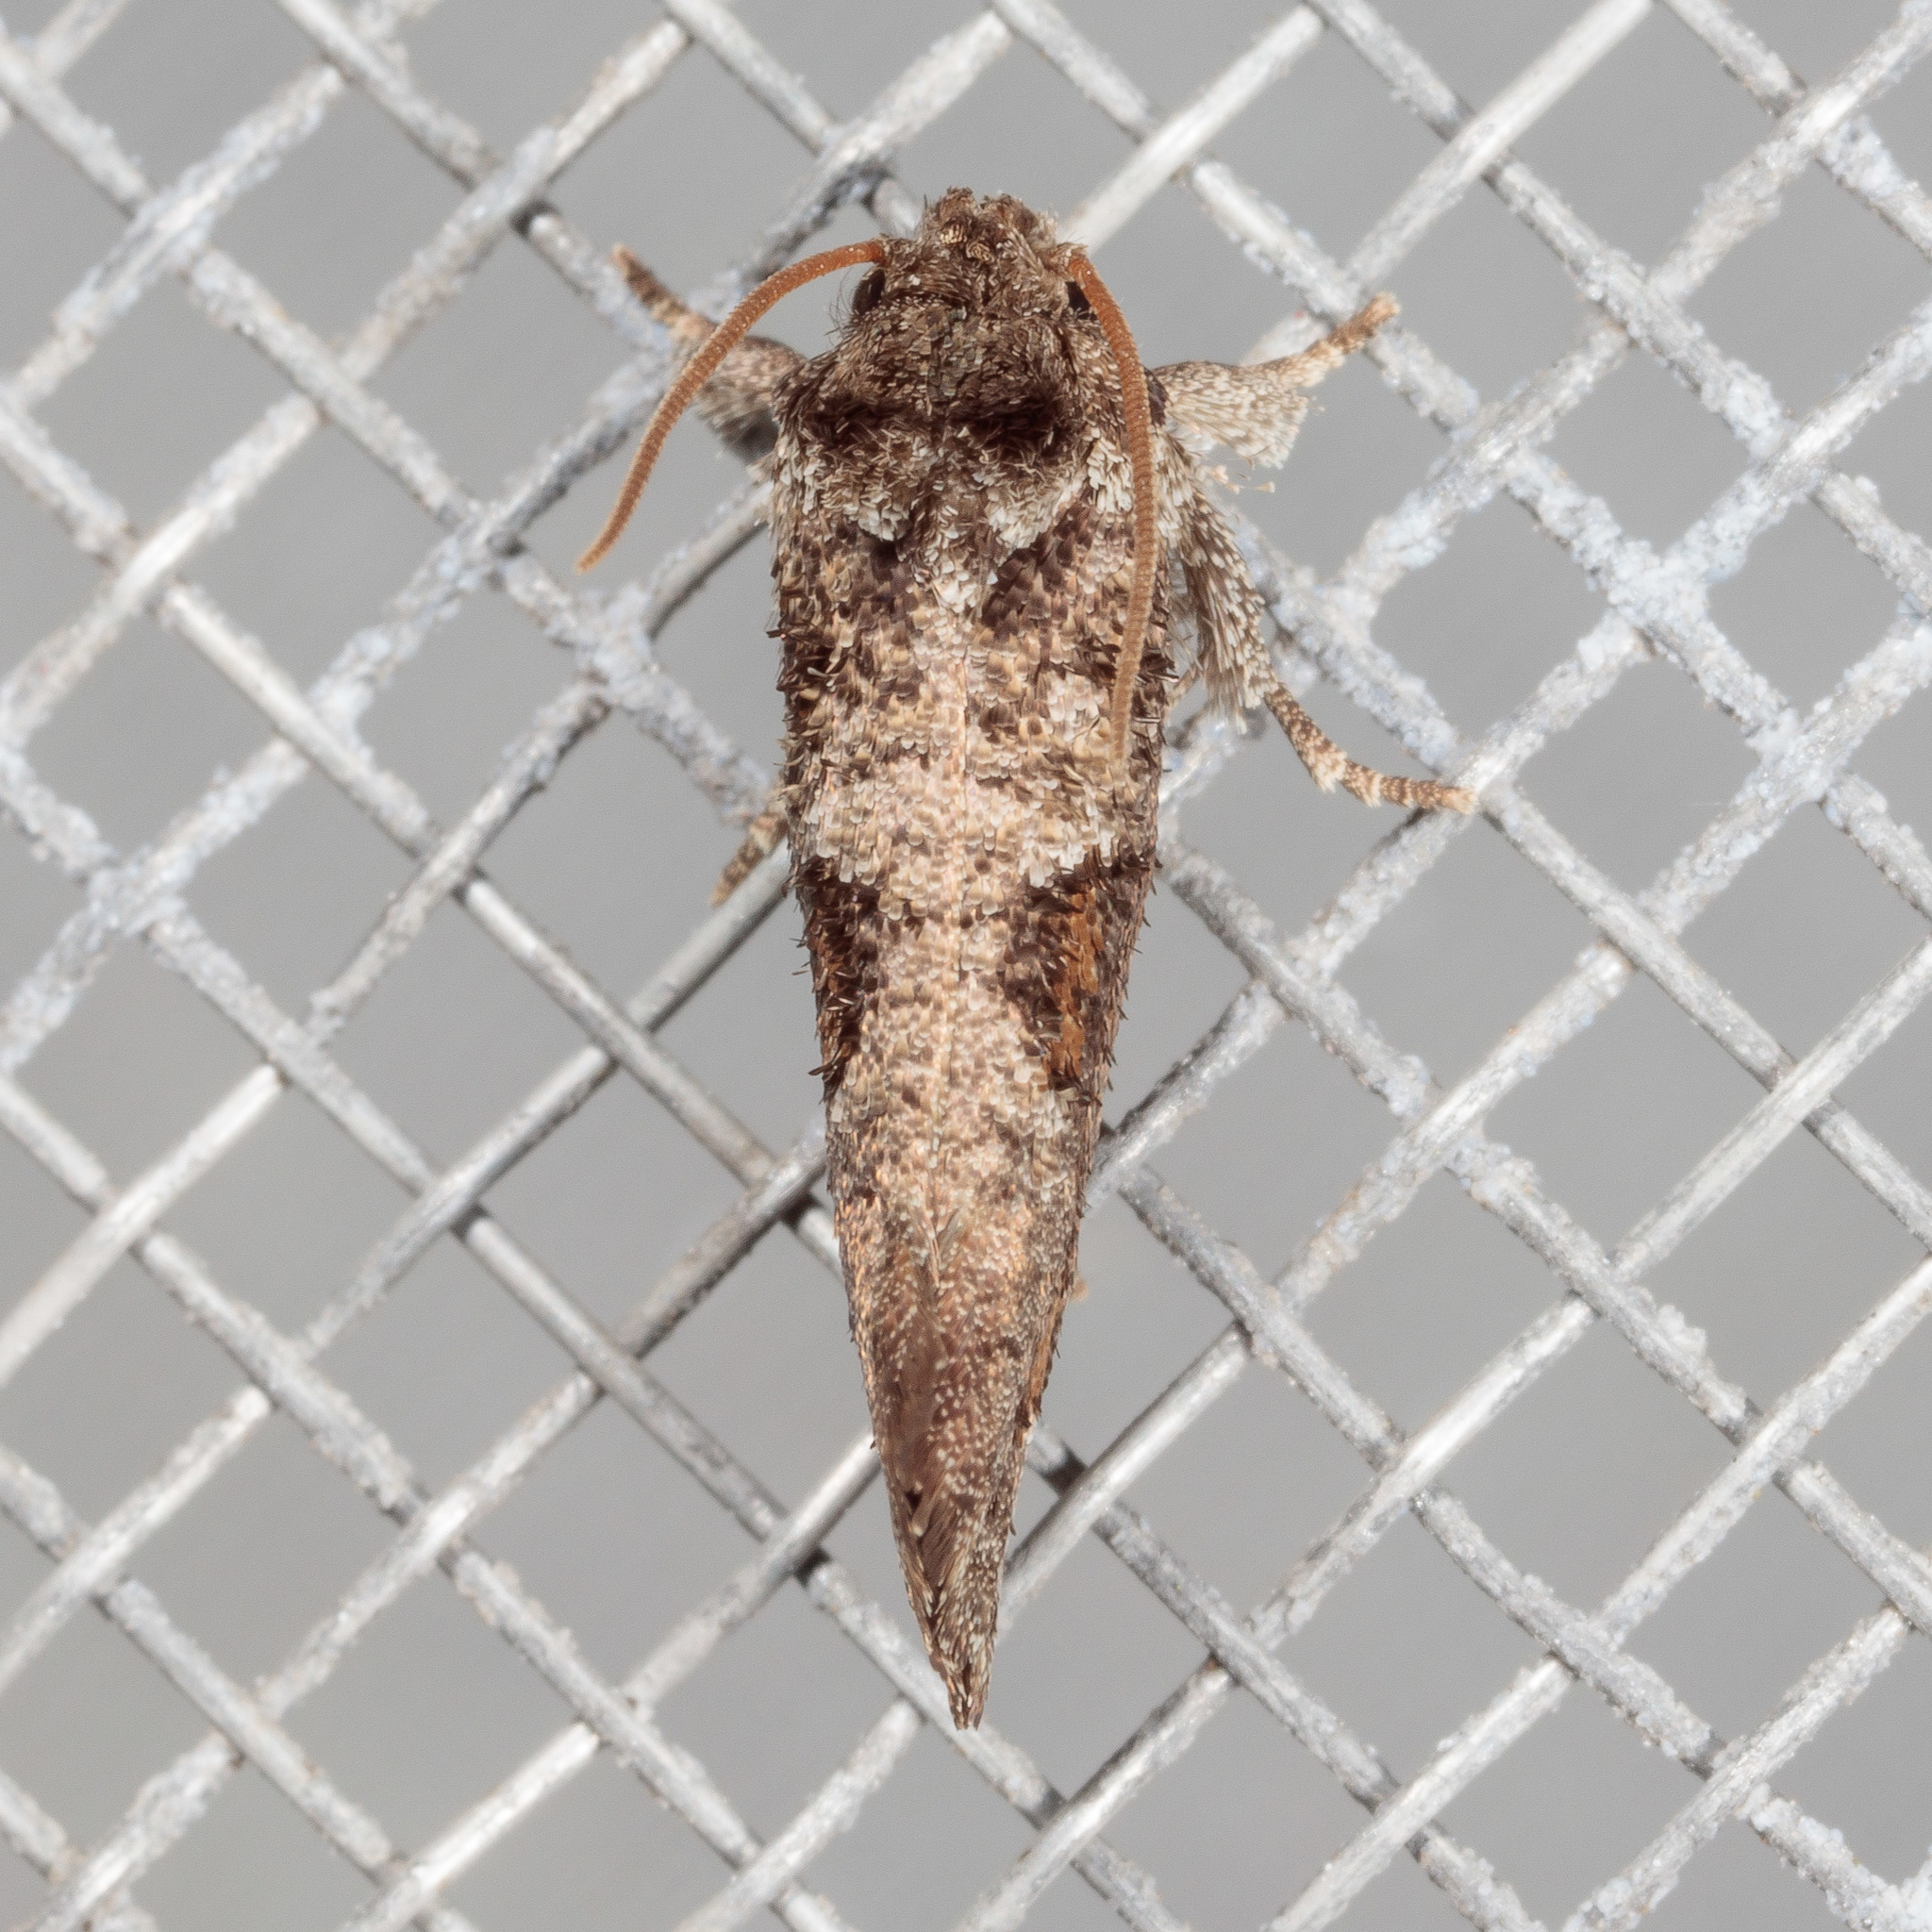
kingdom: Animalia
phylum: Arthropoda
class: Insecta
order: Lepidoptera
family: Tineidae
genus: Acrolophus
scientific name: Acrolophus piger
